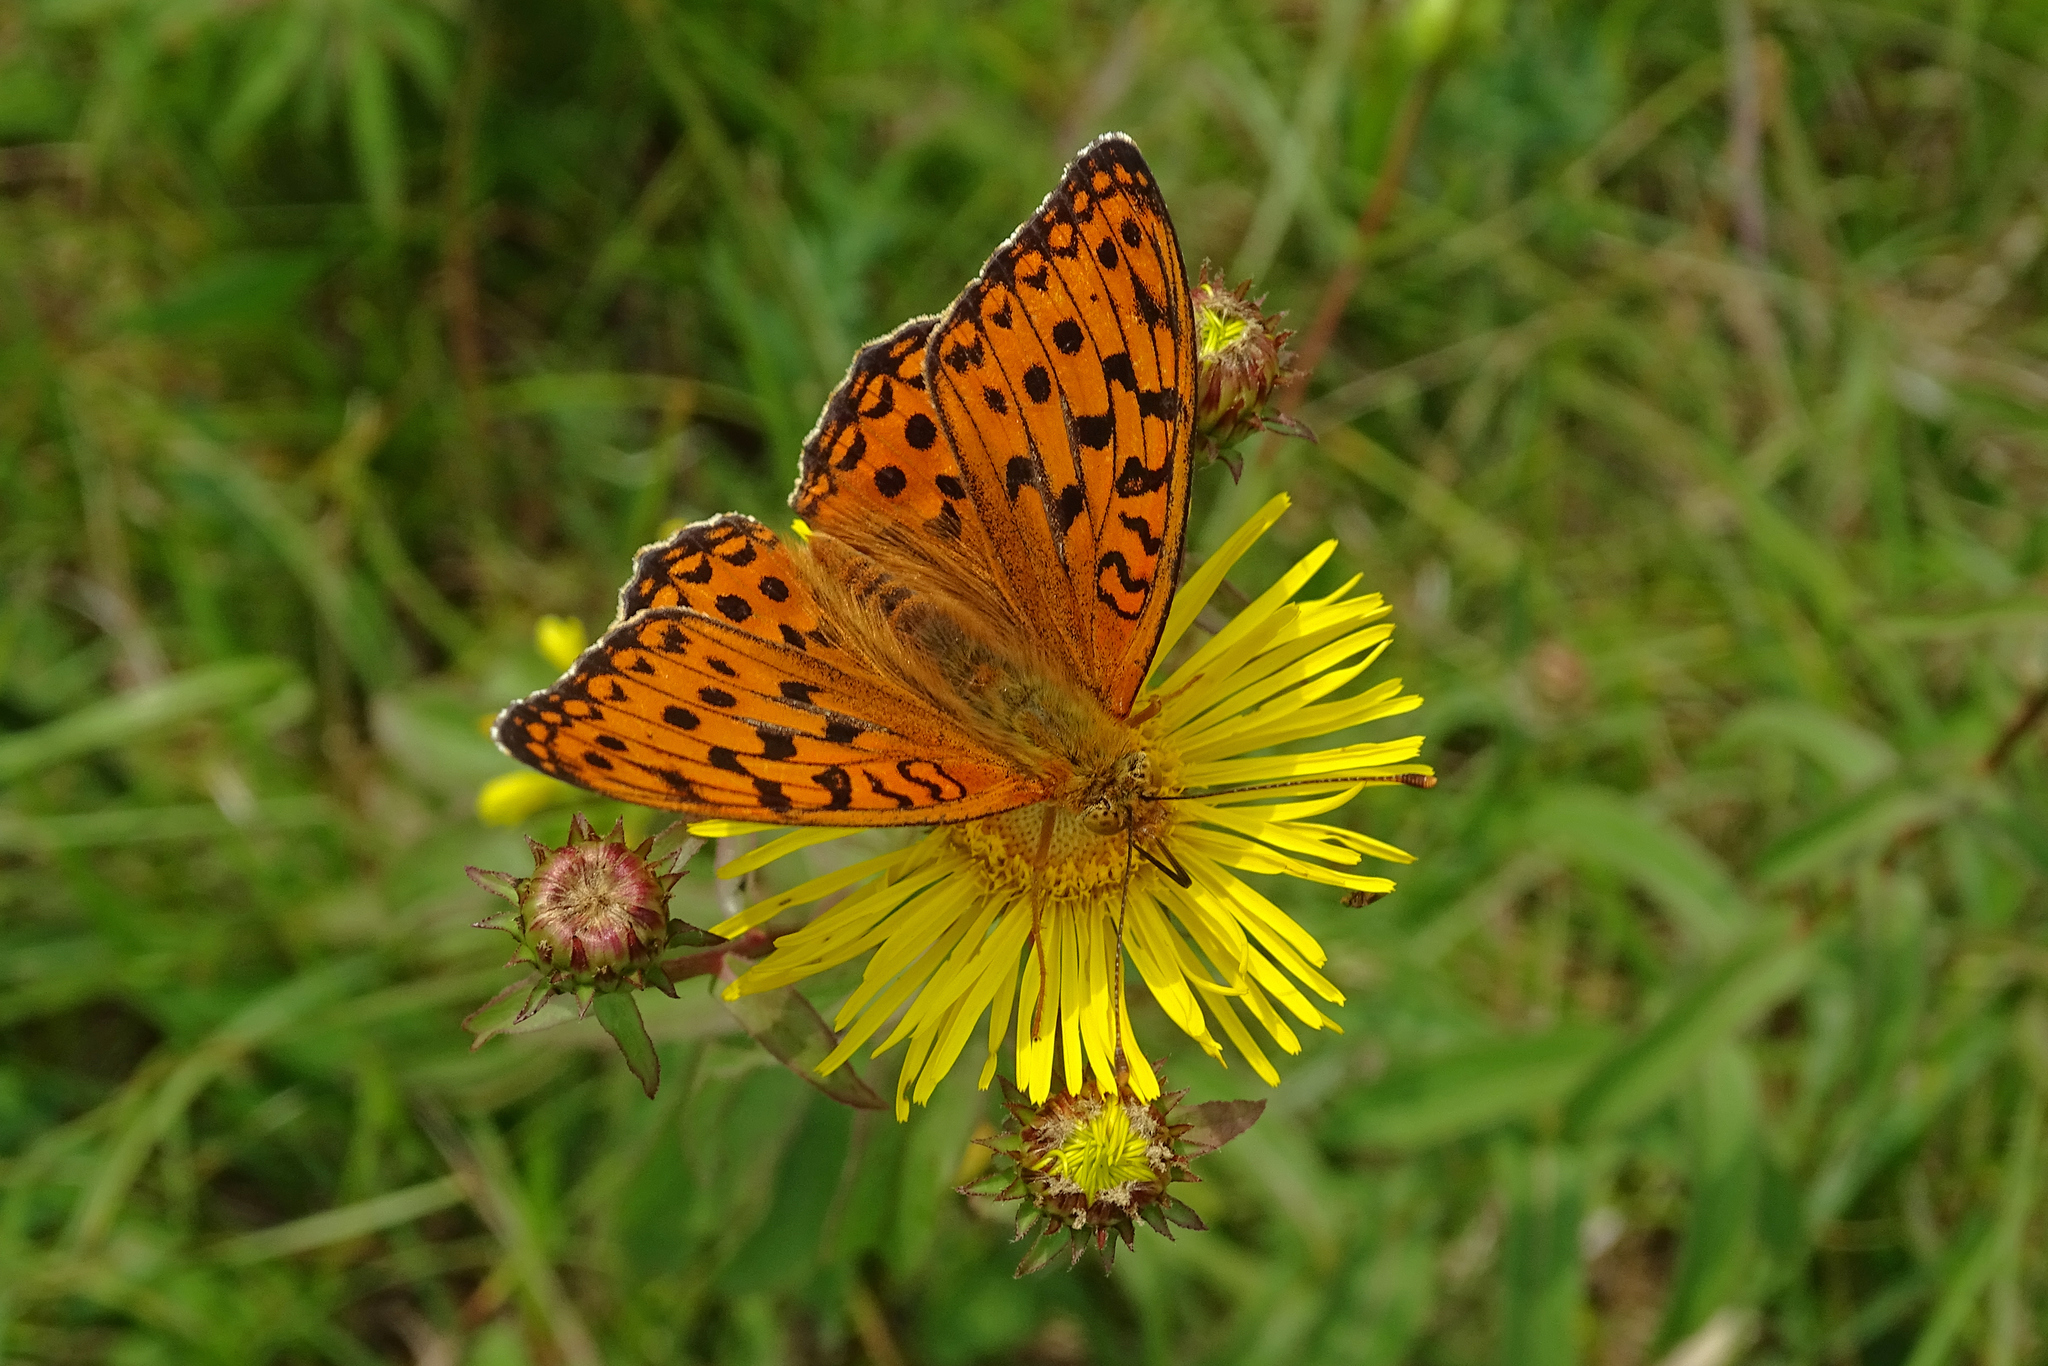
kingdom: Animalia
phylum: Arthropoda
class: Insecta
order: Lepidoptera
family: Nymphalidae
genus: Fabriciana
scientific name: Fabriciana adippe
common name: High brown fritillary
